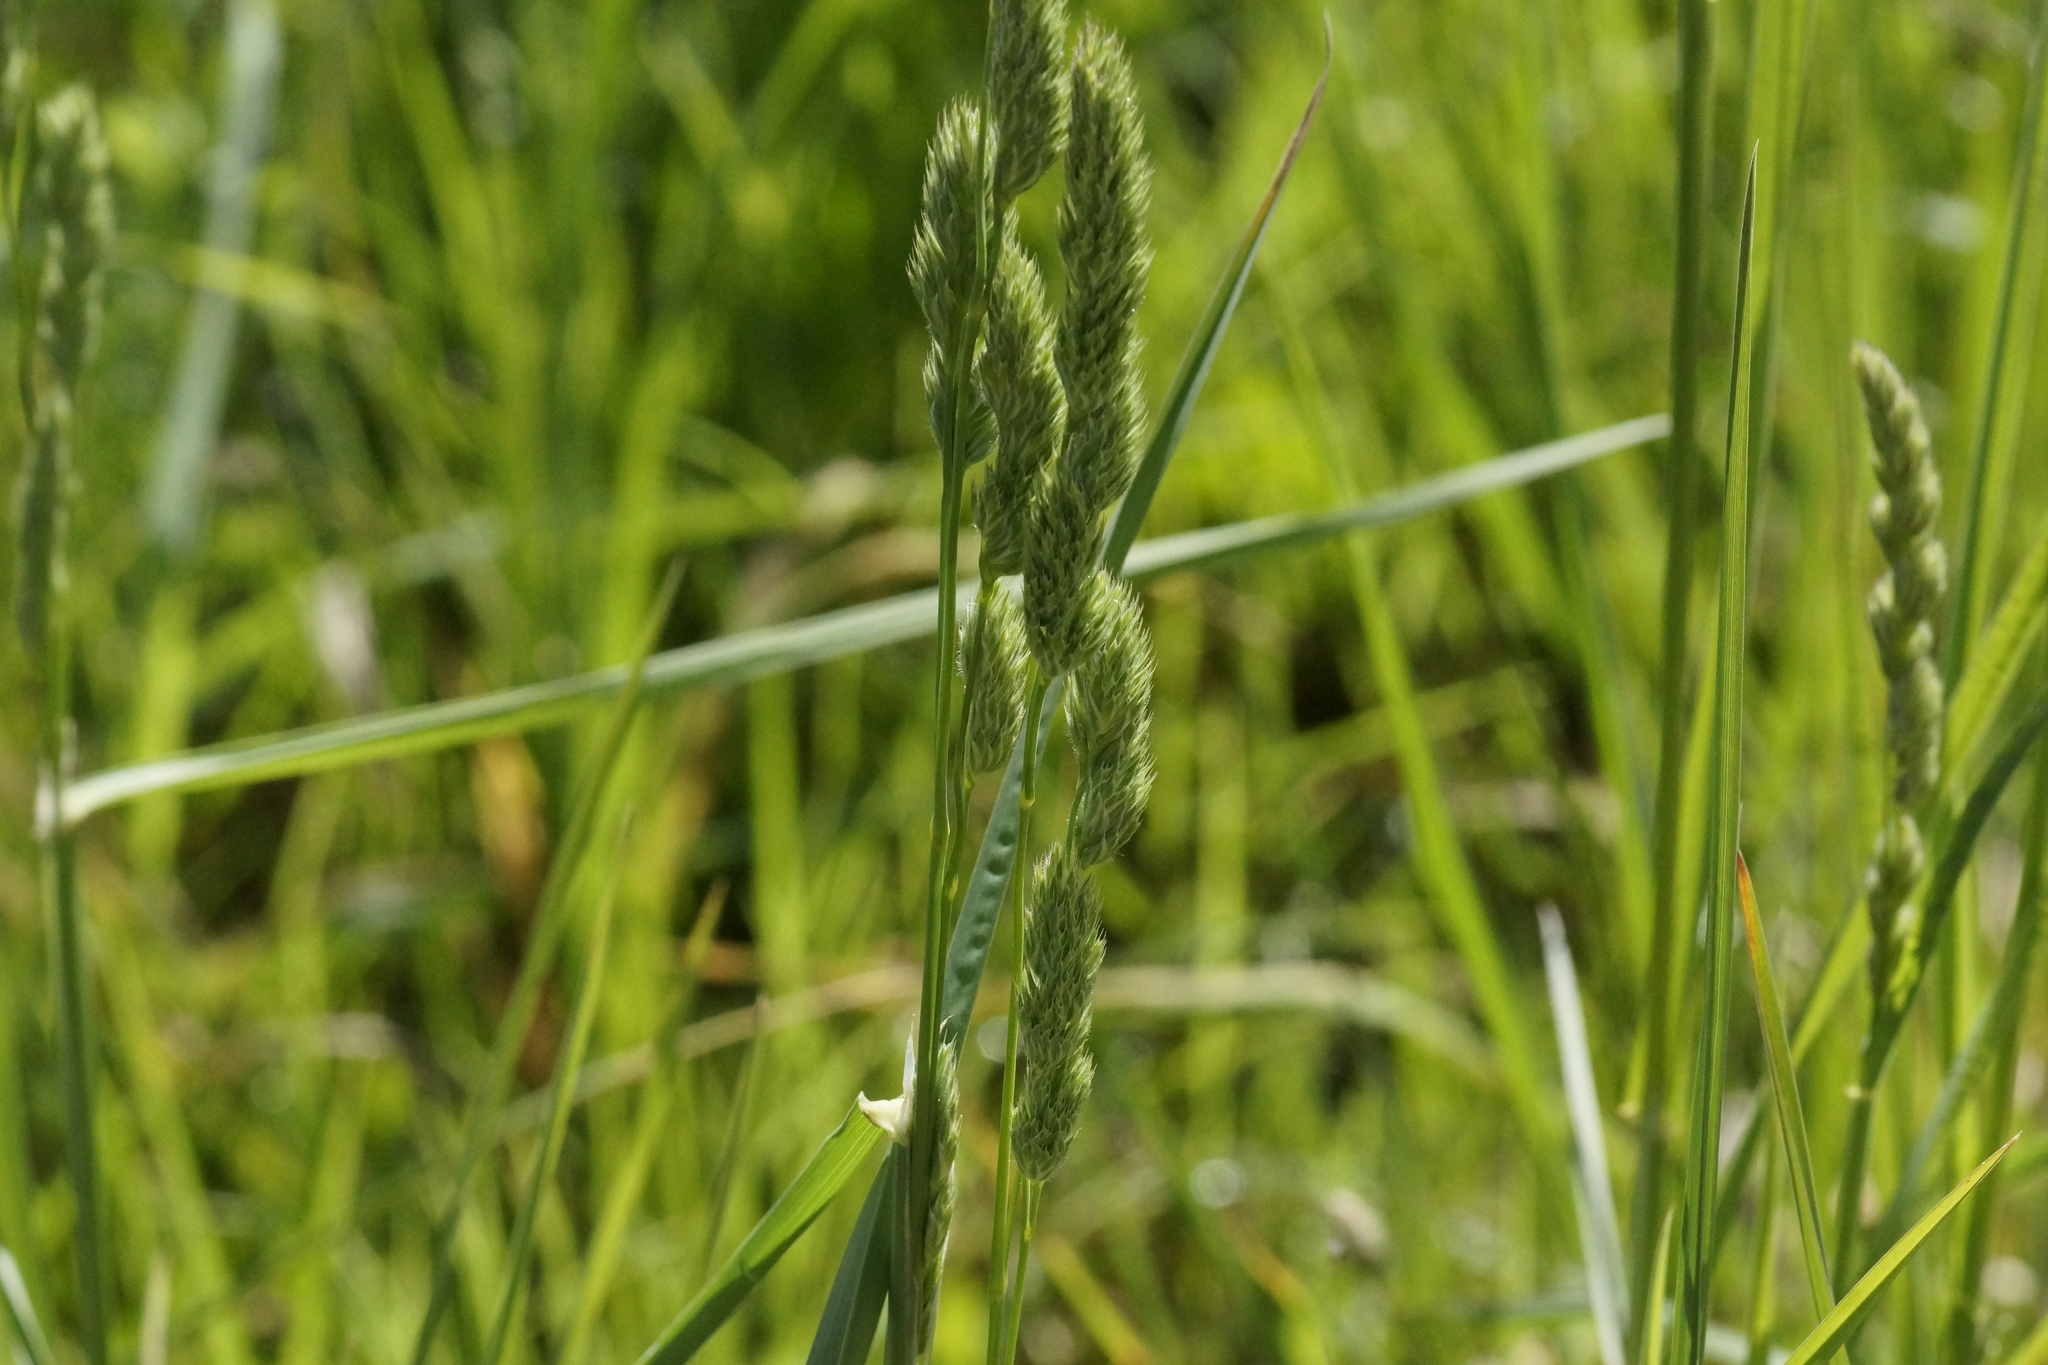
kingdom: Plantae
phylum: Tracheophyta
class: Liliopsida
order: Poales
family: Poaceae
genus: Dactylis
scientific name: Dactylis glomerata
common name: Orchardgrass
